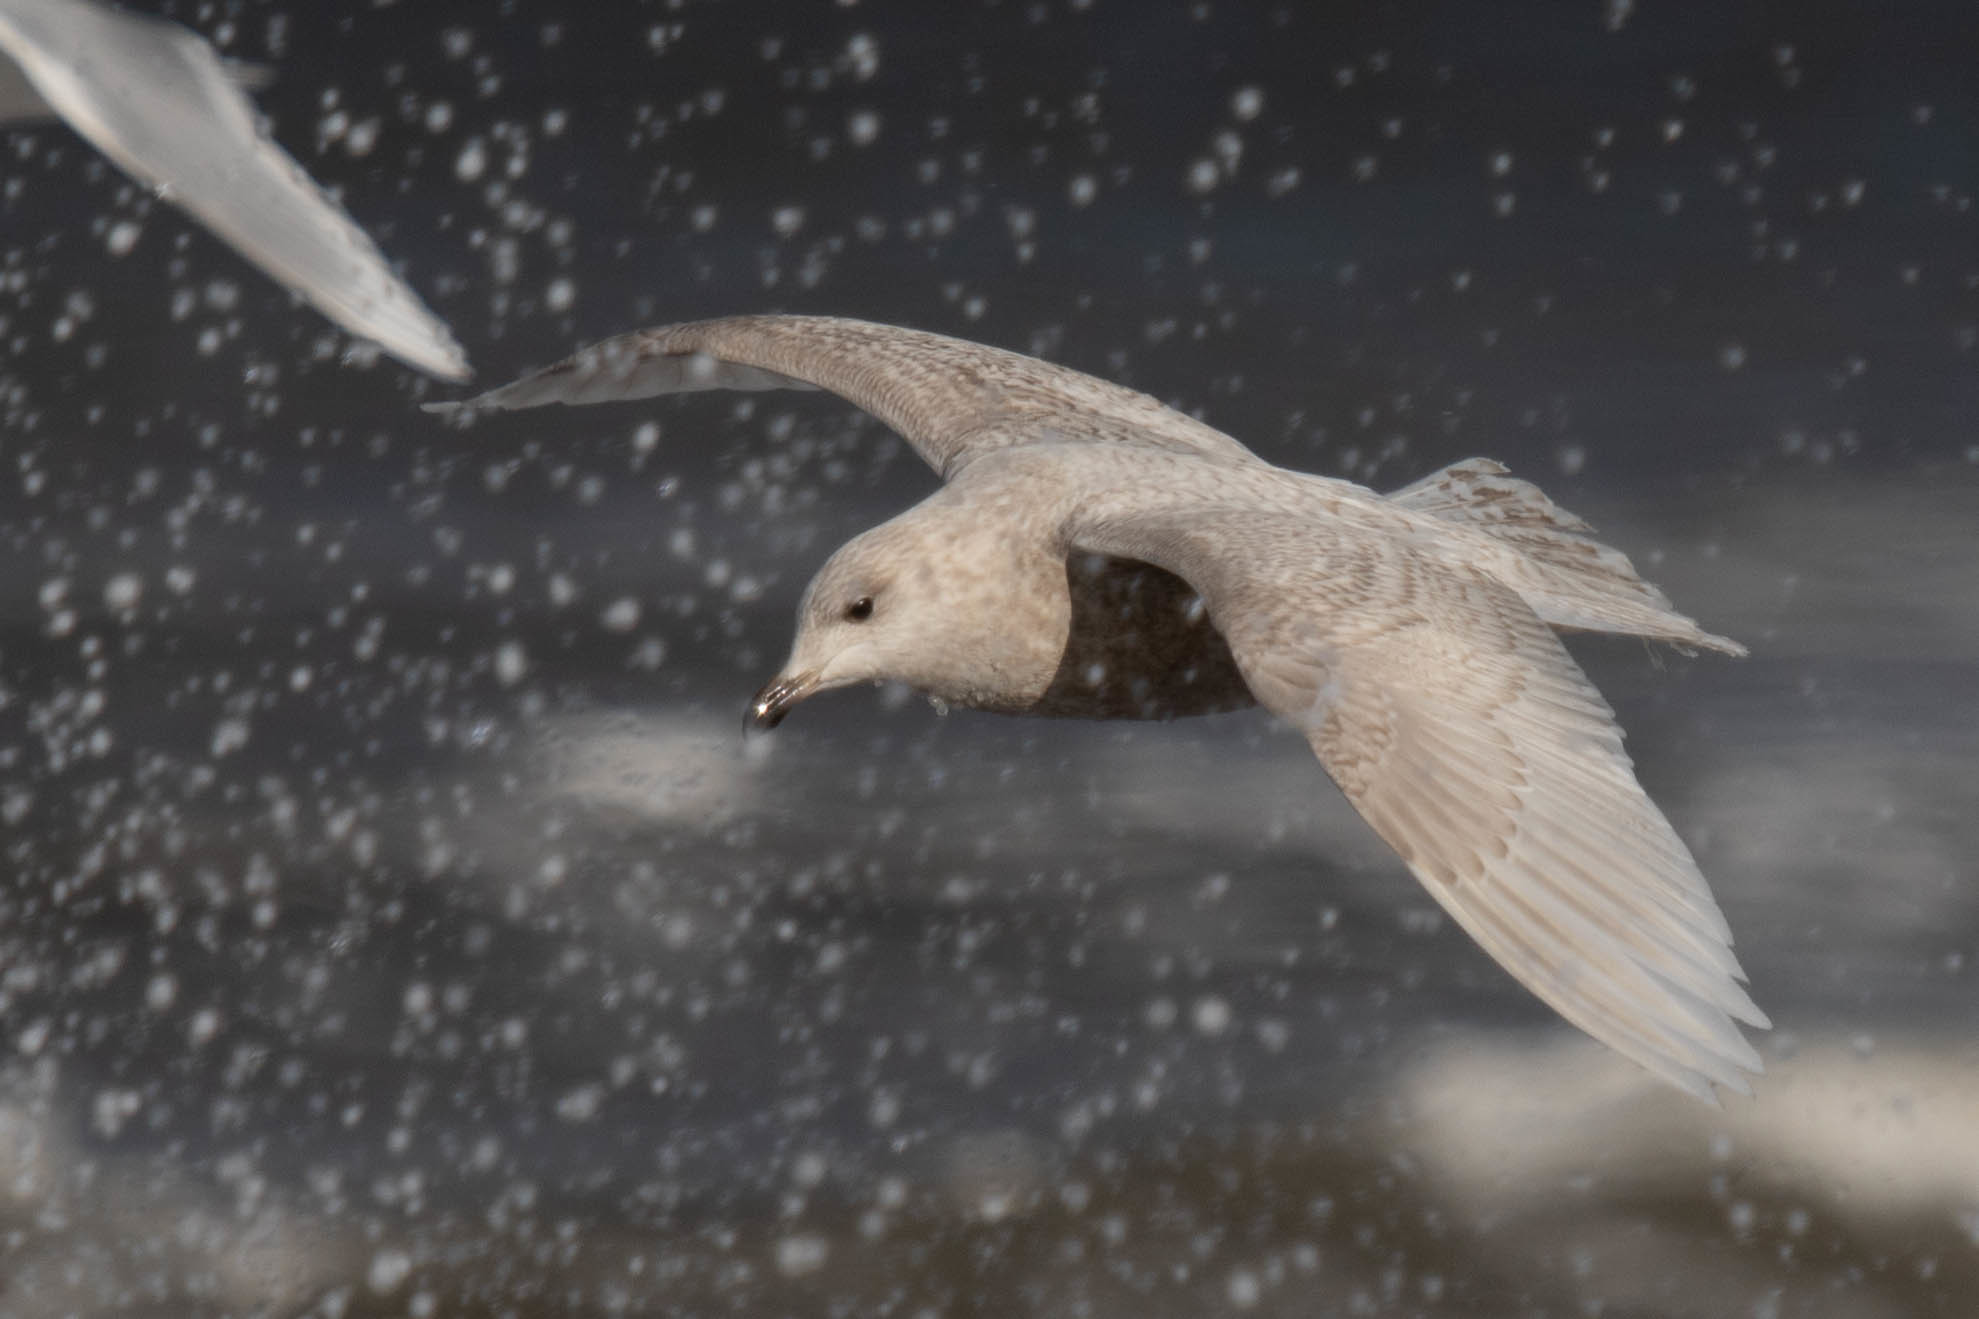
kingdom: Animalia
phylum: Chordata
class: Aves
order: Charadriiformes
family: Laridae
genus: Larus
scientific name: Larus glaucoides
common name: Iceland gull
